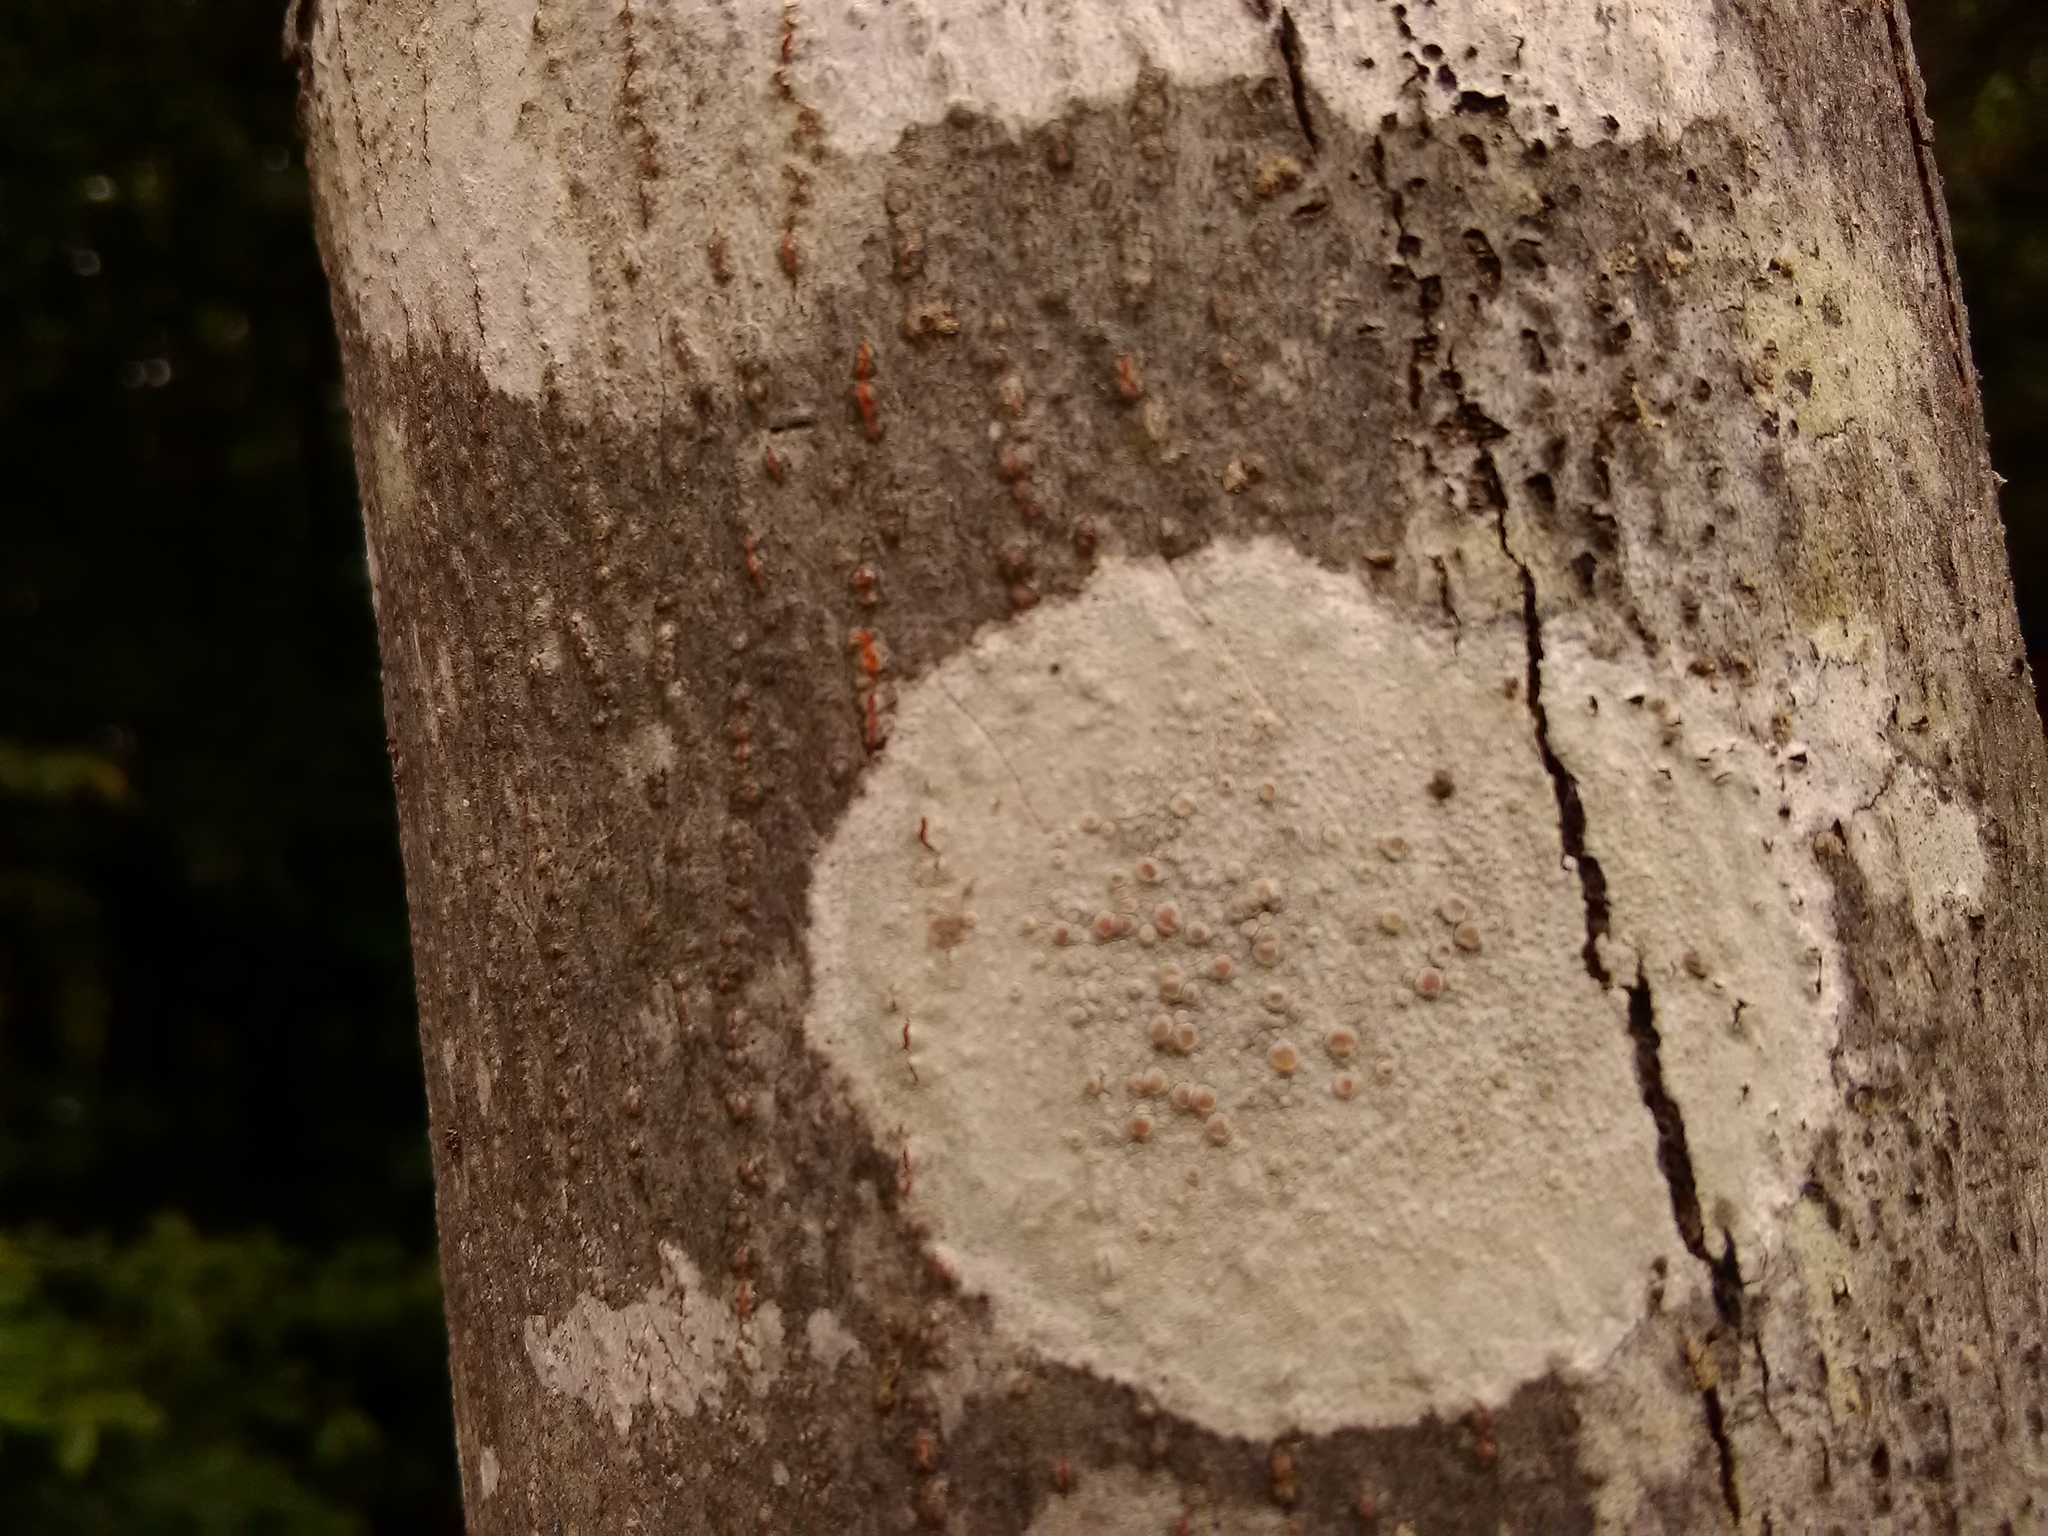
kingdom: Fungi
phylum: Ascomycota
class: Lecanoromycetes
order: Lecanorales
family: Lecanoraceae
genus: Lecanora
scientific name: Lecanora hybocarpa
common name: Bumpy rim-lichen
